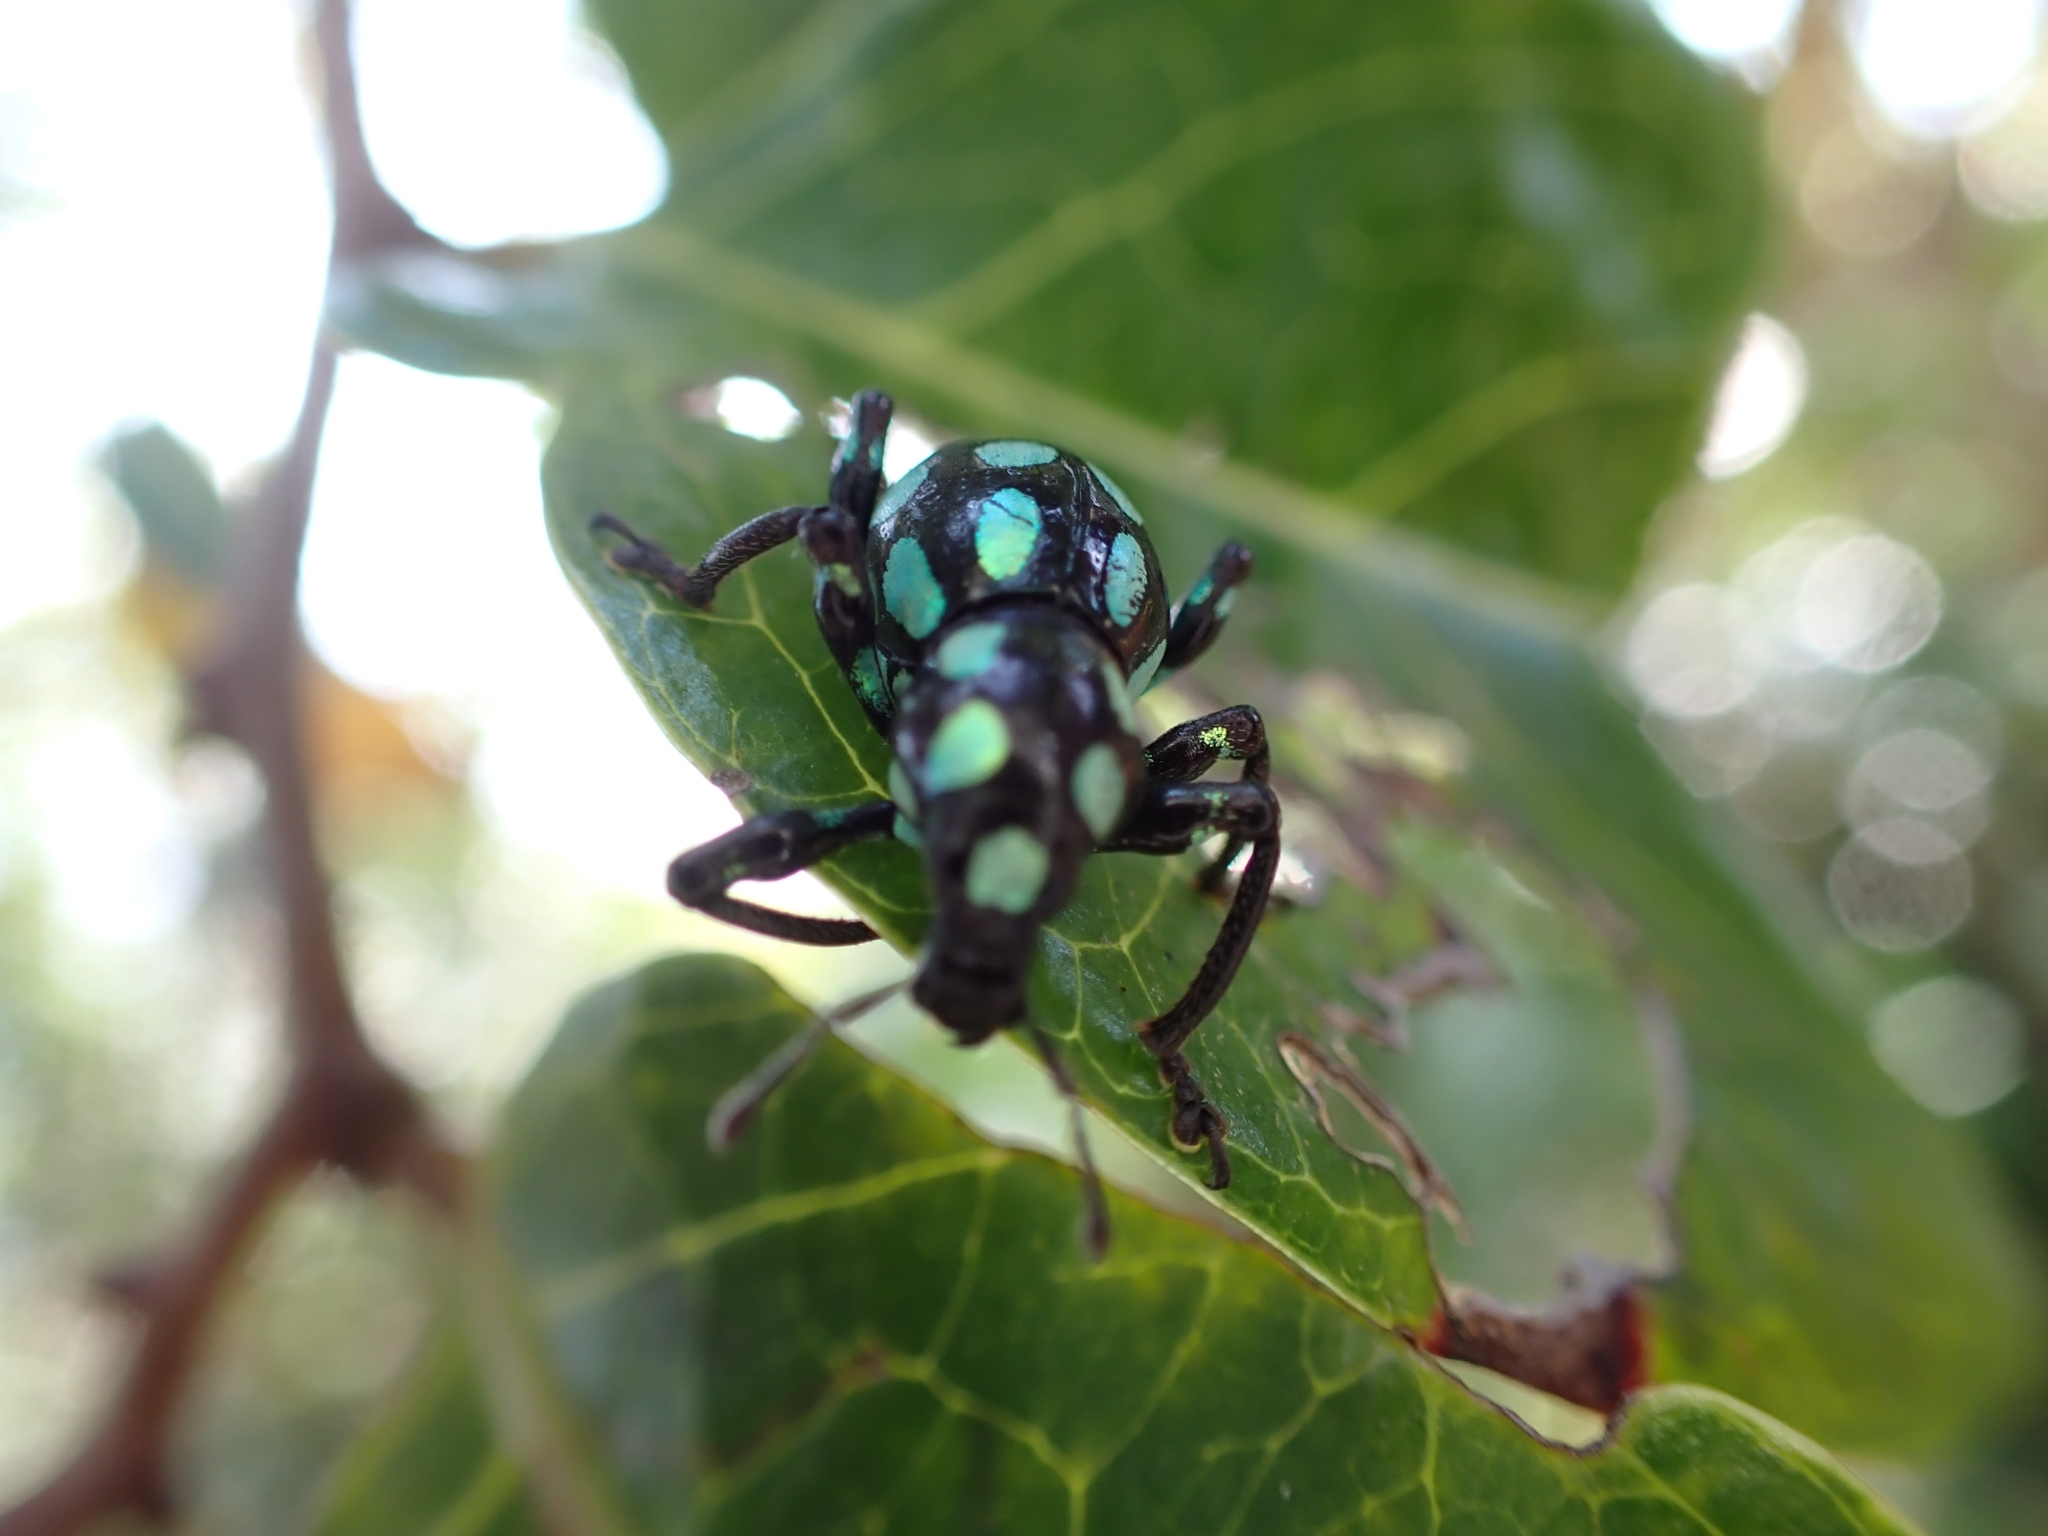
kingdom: Animalia
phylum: Arthropoda
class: Insecta
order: Coleoptera
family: Curculionidae
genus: Pachyrhynchus
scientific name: Pachyrhynchus tobafolius
